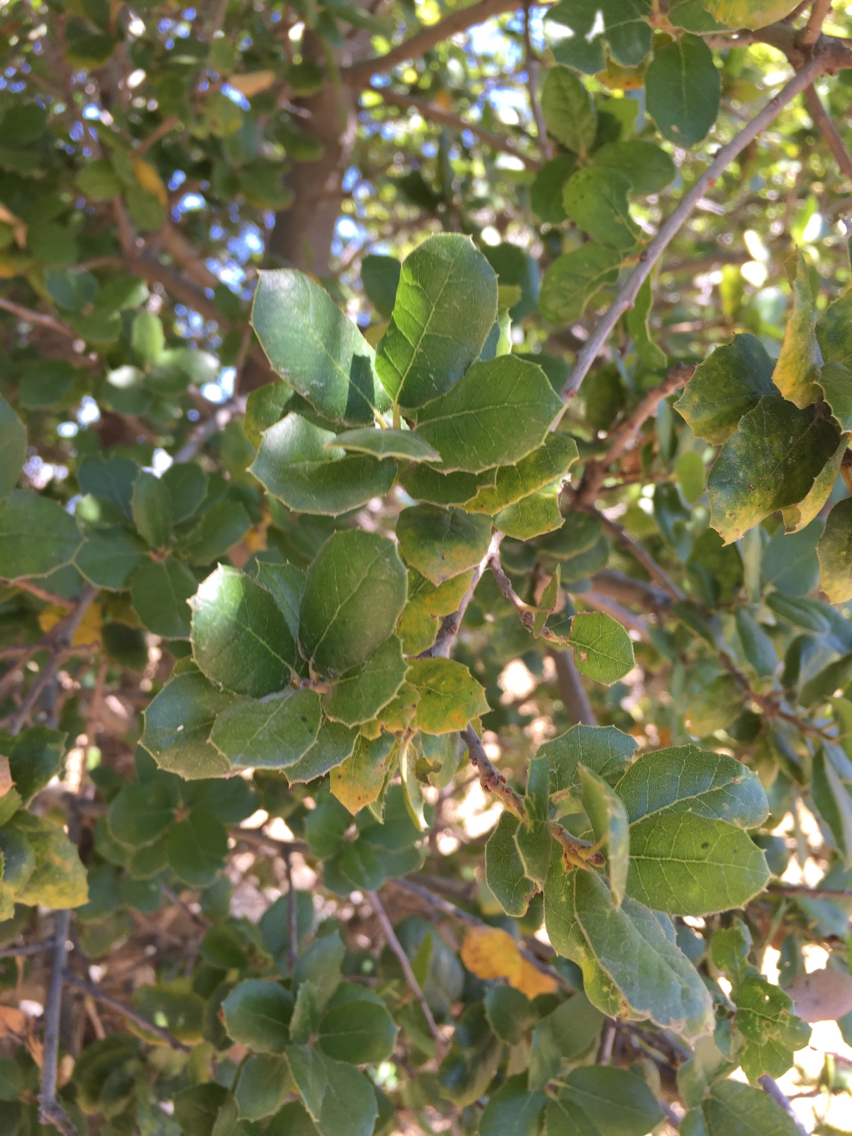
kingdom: Plantae
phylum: Tracheophyta
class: Magnoliopsida
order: Fagales
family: Fagaceae
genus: Quercus
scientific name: Quercus agrifolia
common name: California live oak
